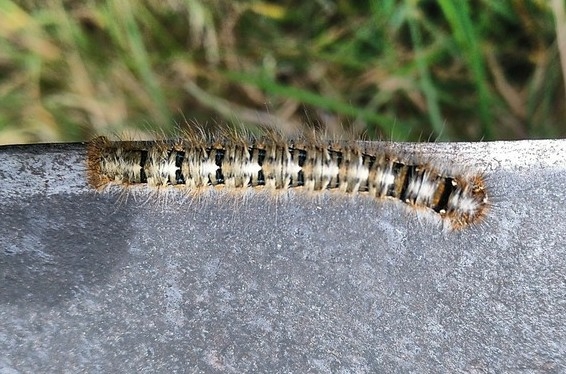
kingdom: Animalia
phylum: Arthropoda
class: Insecta
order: Lepidoptera
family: Lasiocampidae
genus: Lasiocampa
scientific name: Lasiocampa quercus
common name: Oak eggar
